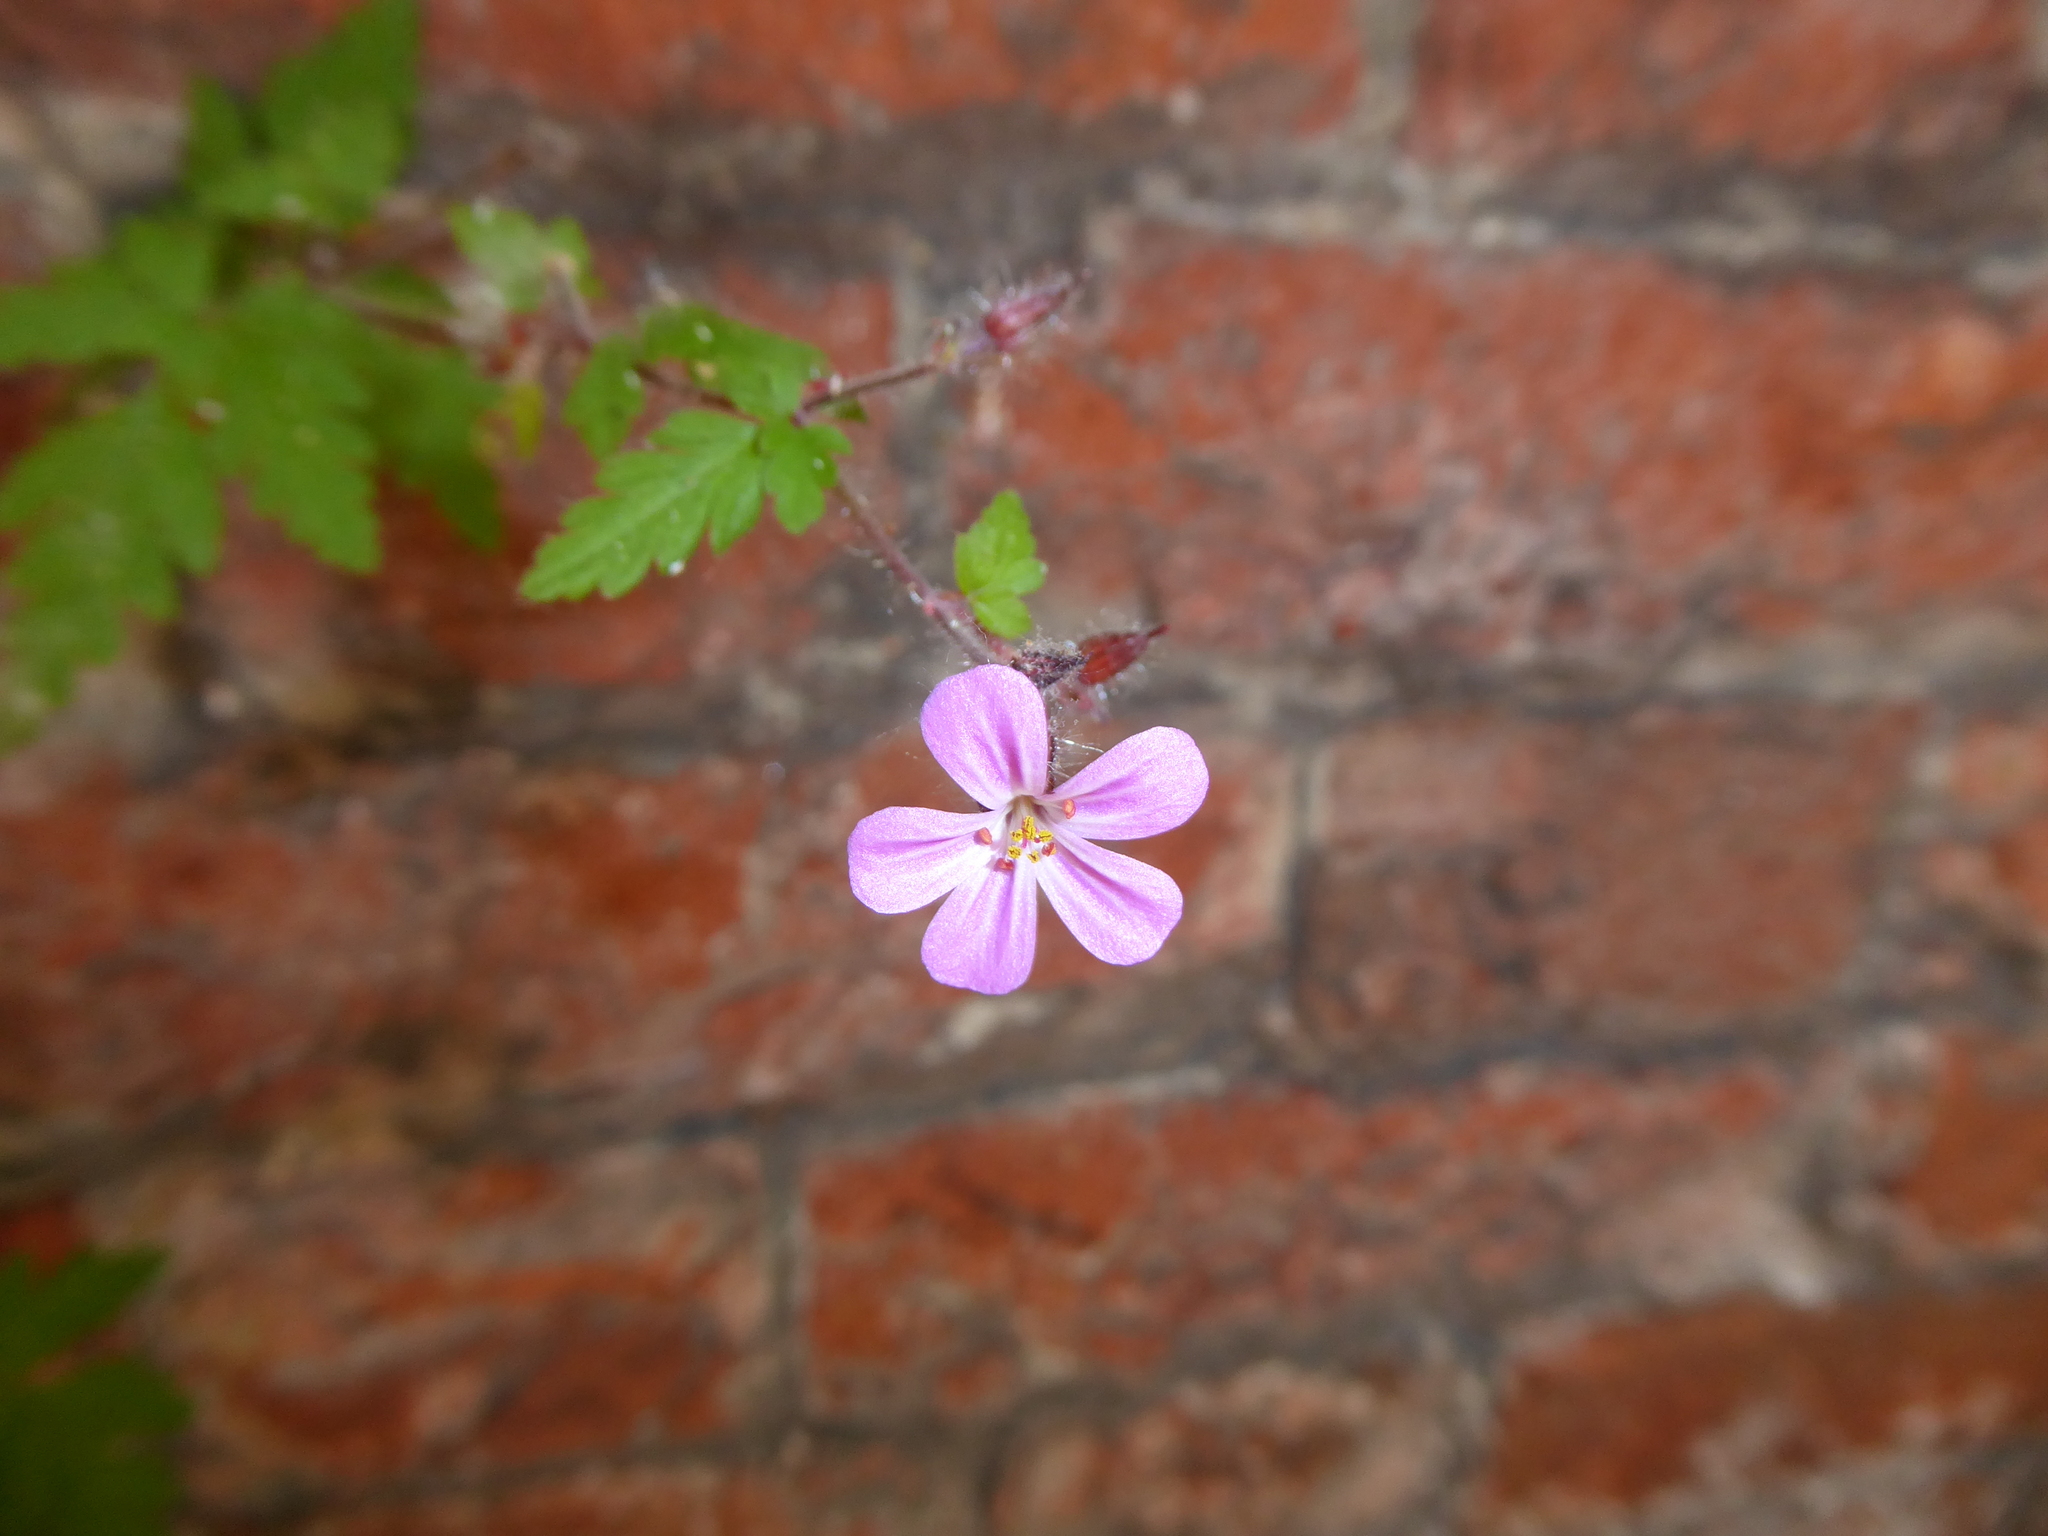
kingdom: Plantae
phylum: Tracheophyta
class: Magnoliopsida
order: Geraniales
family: Geraniaceae
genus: Geranium
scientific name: Geranium robertianum
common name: Herb-robert
